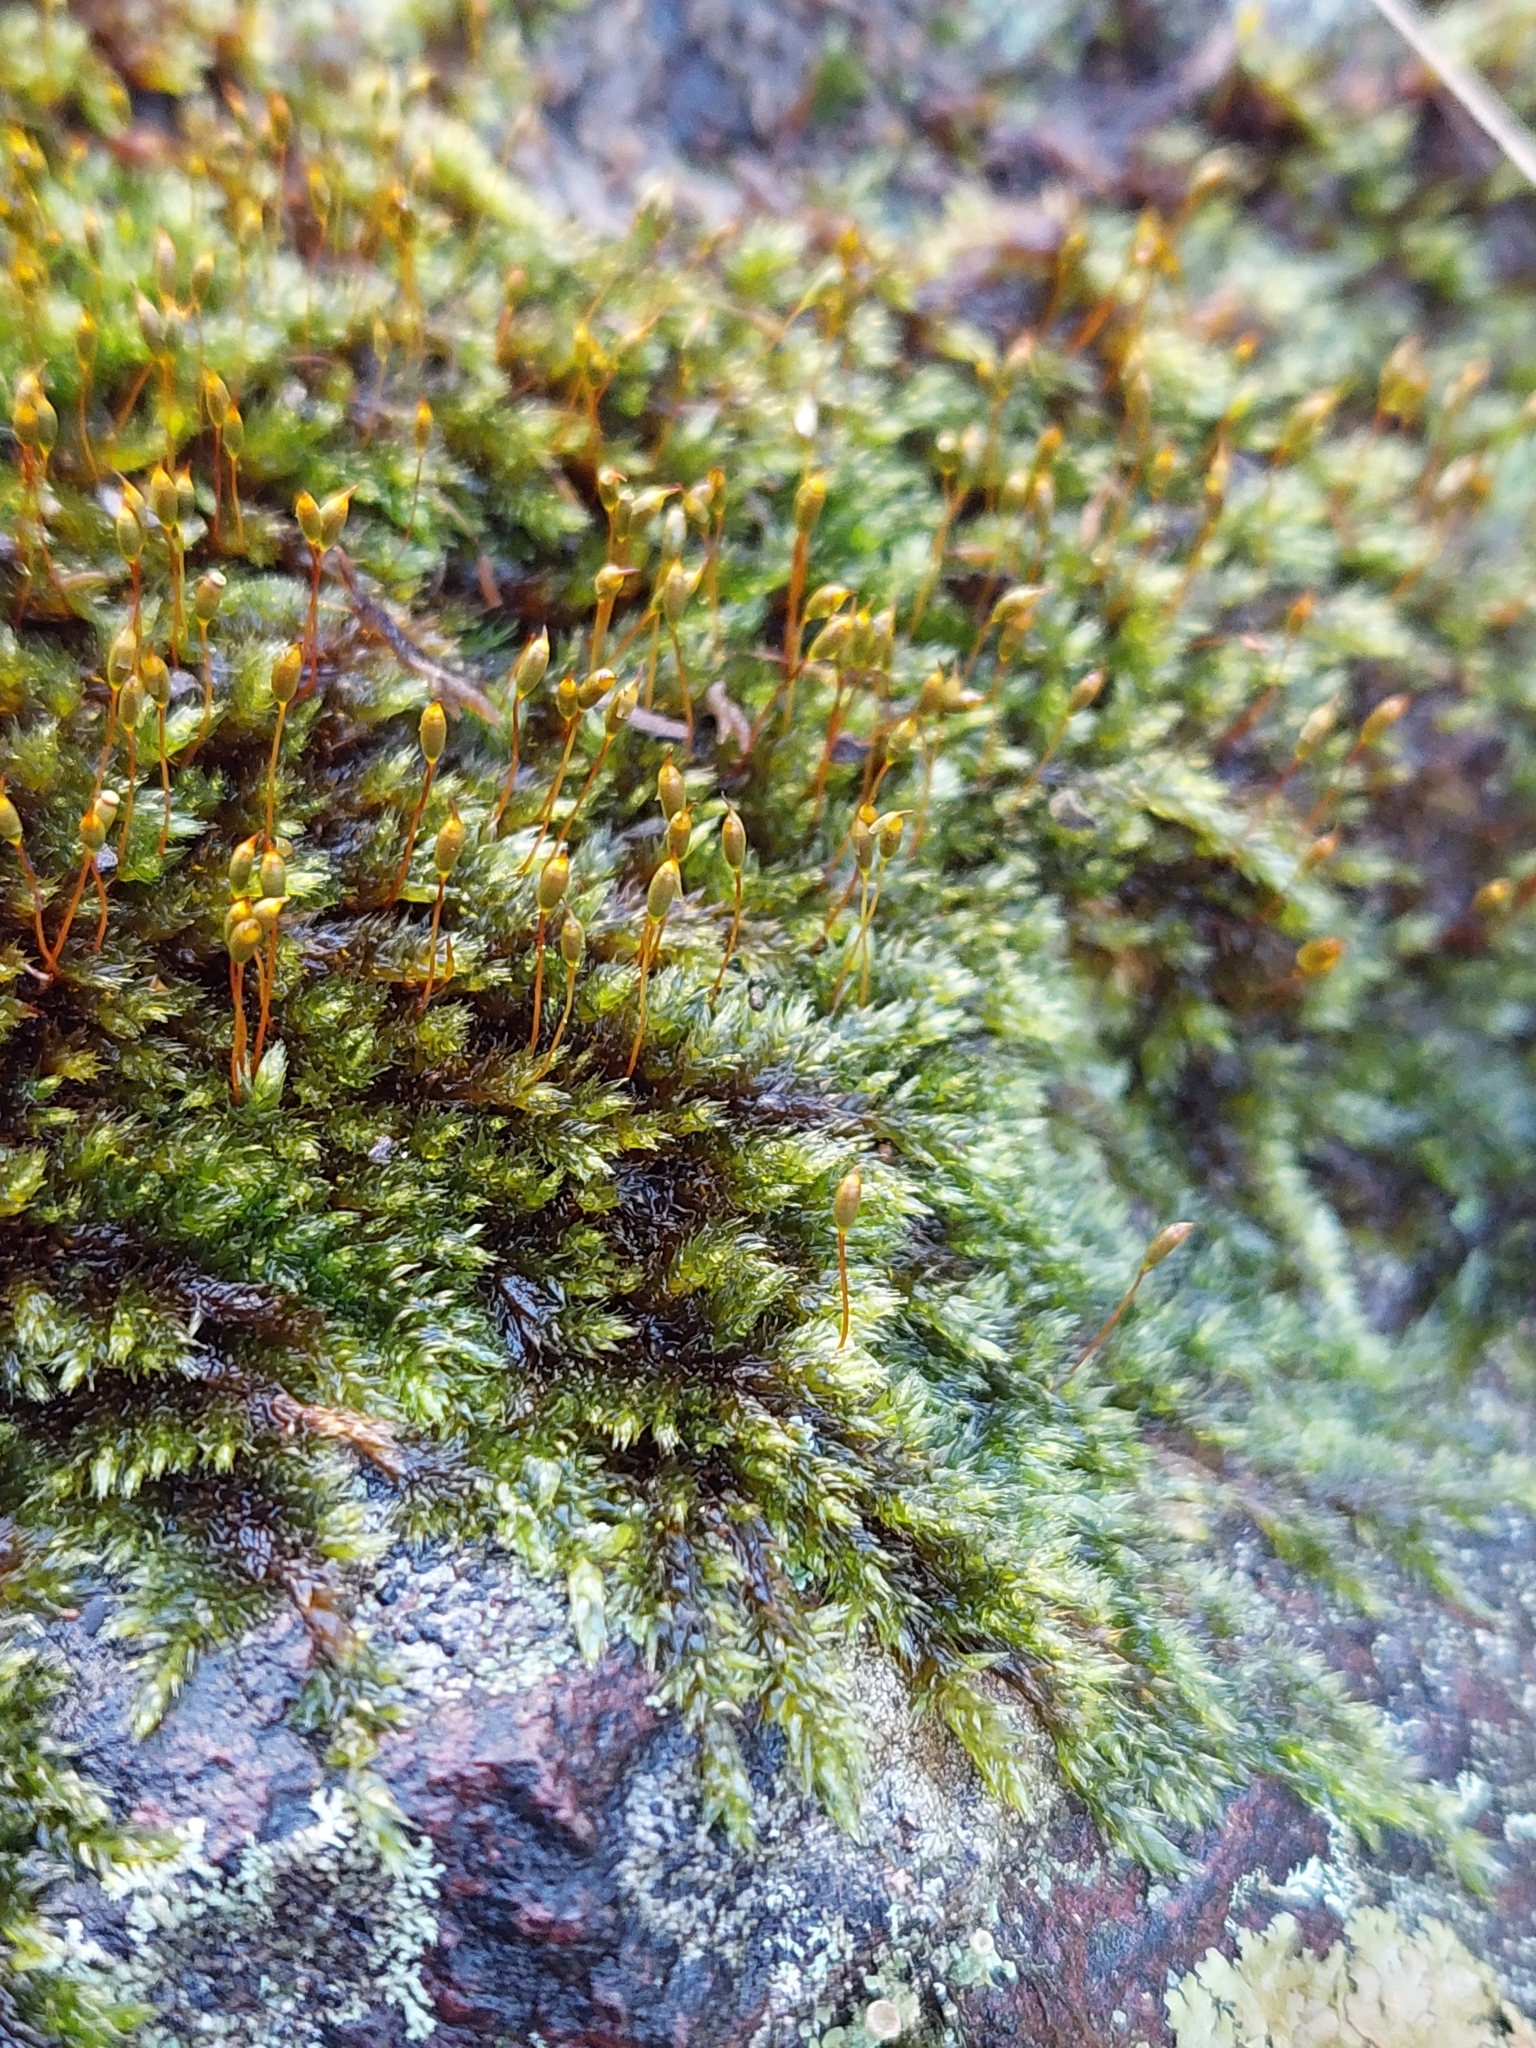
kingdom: Plantae
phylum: Bryophyta
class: Bryopsida
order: Hypnales
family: Sematophyllaceae
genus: Sematophyllum
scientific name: Sematophyllum homomallum
